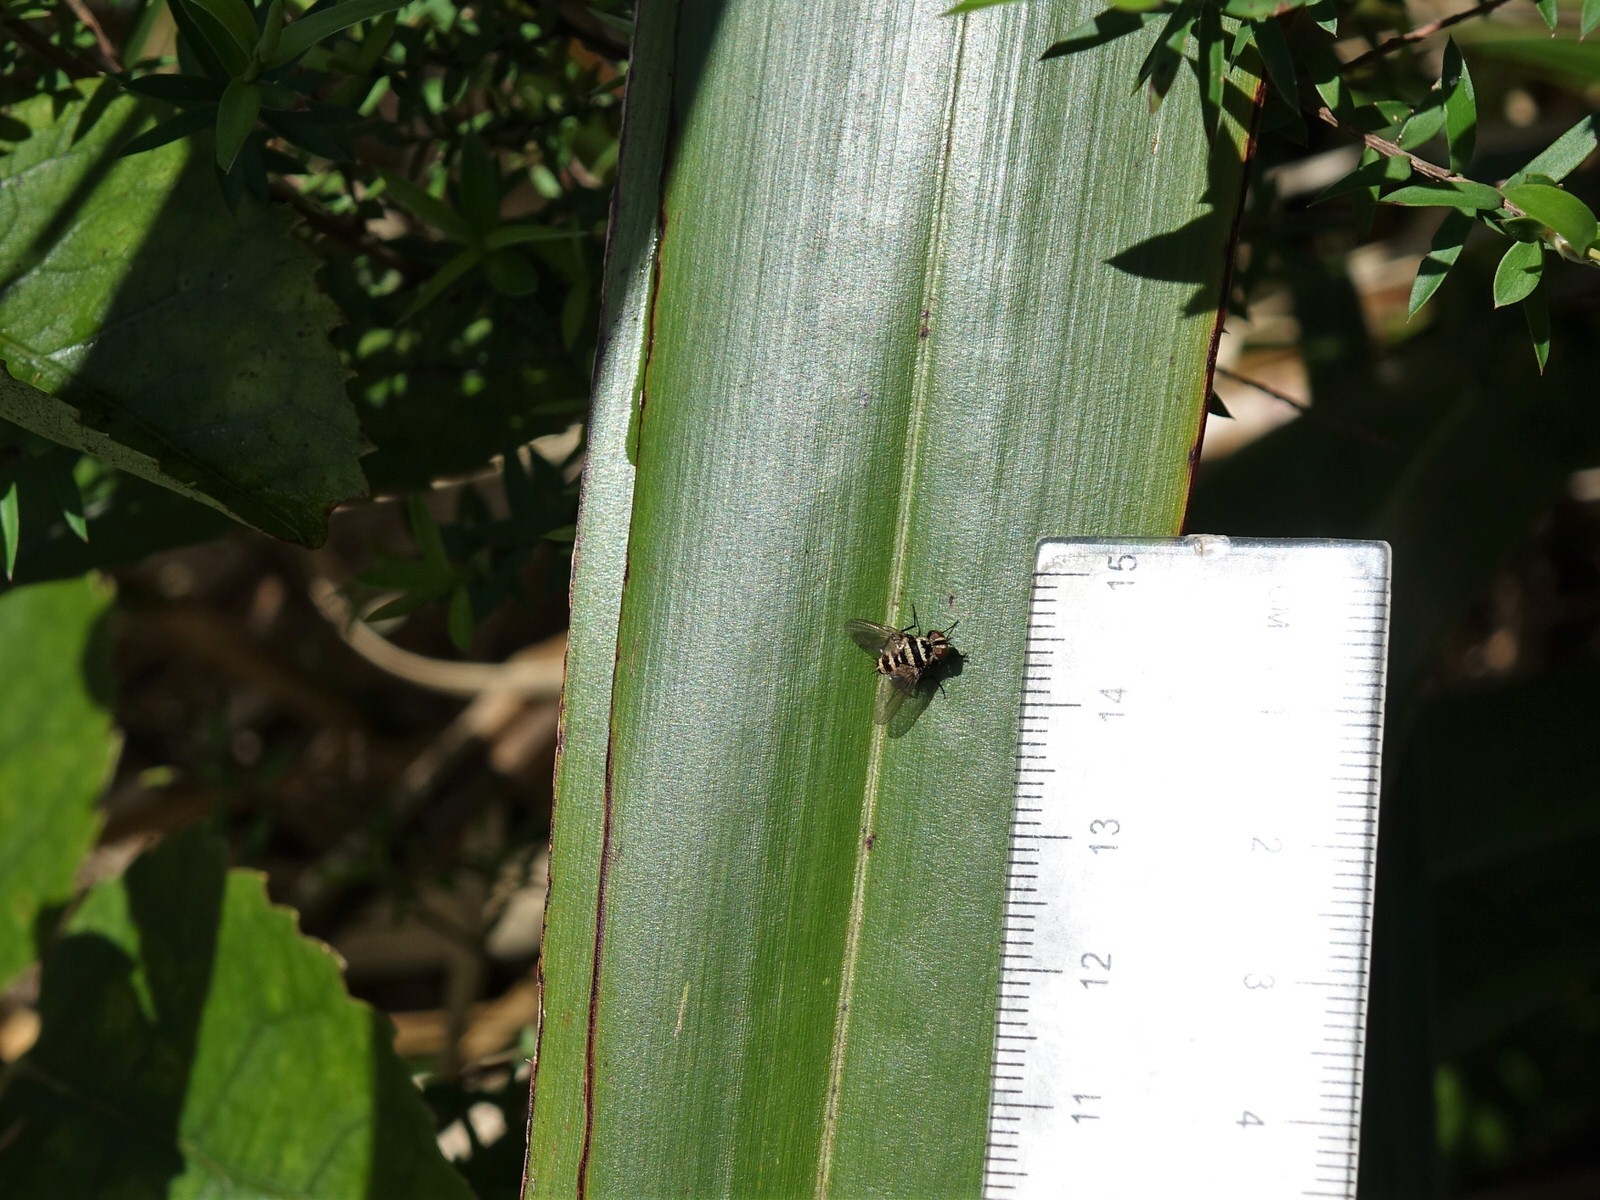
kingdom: Animalia
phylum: Arthropoda
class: Insecta
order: Diptera
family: Tachinidae
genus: Trigonospila
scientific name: Trigonospila brevifacies
